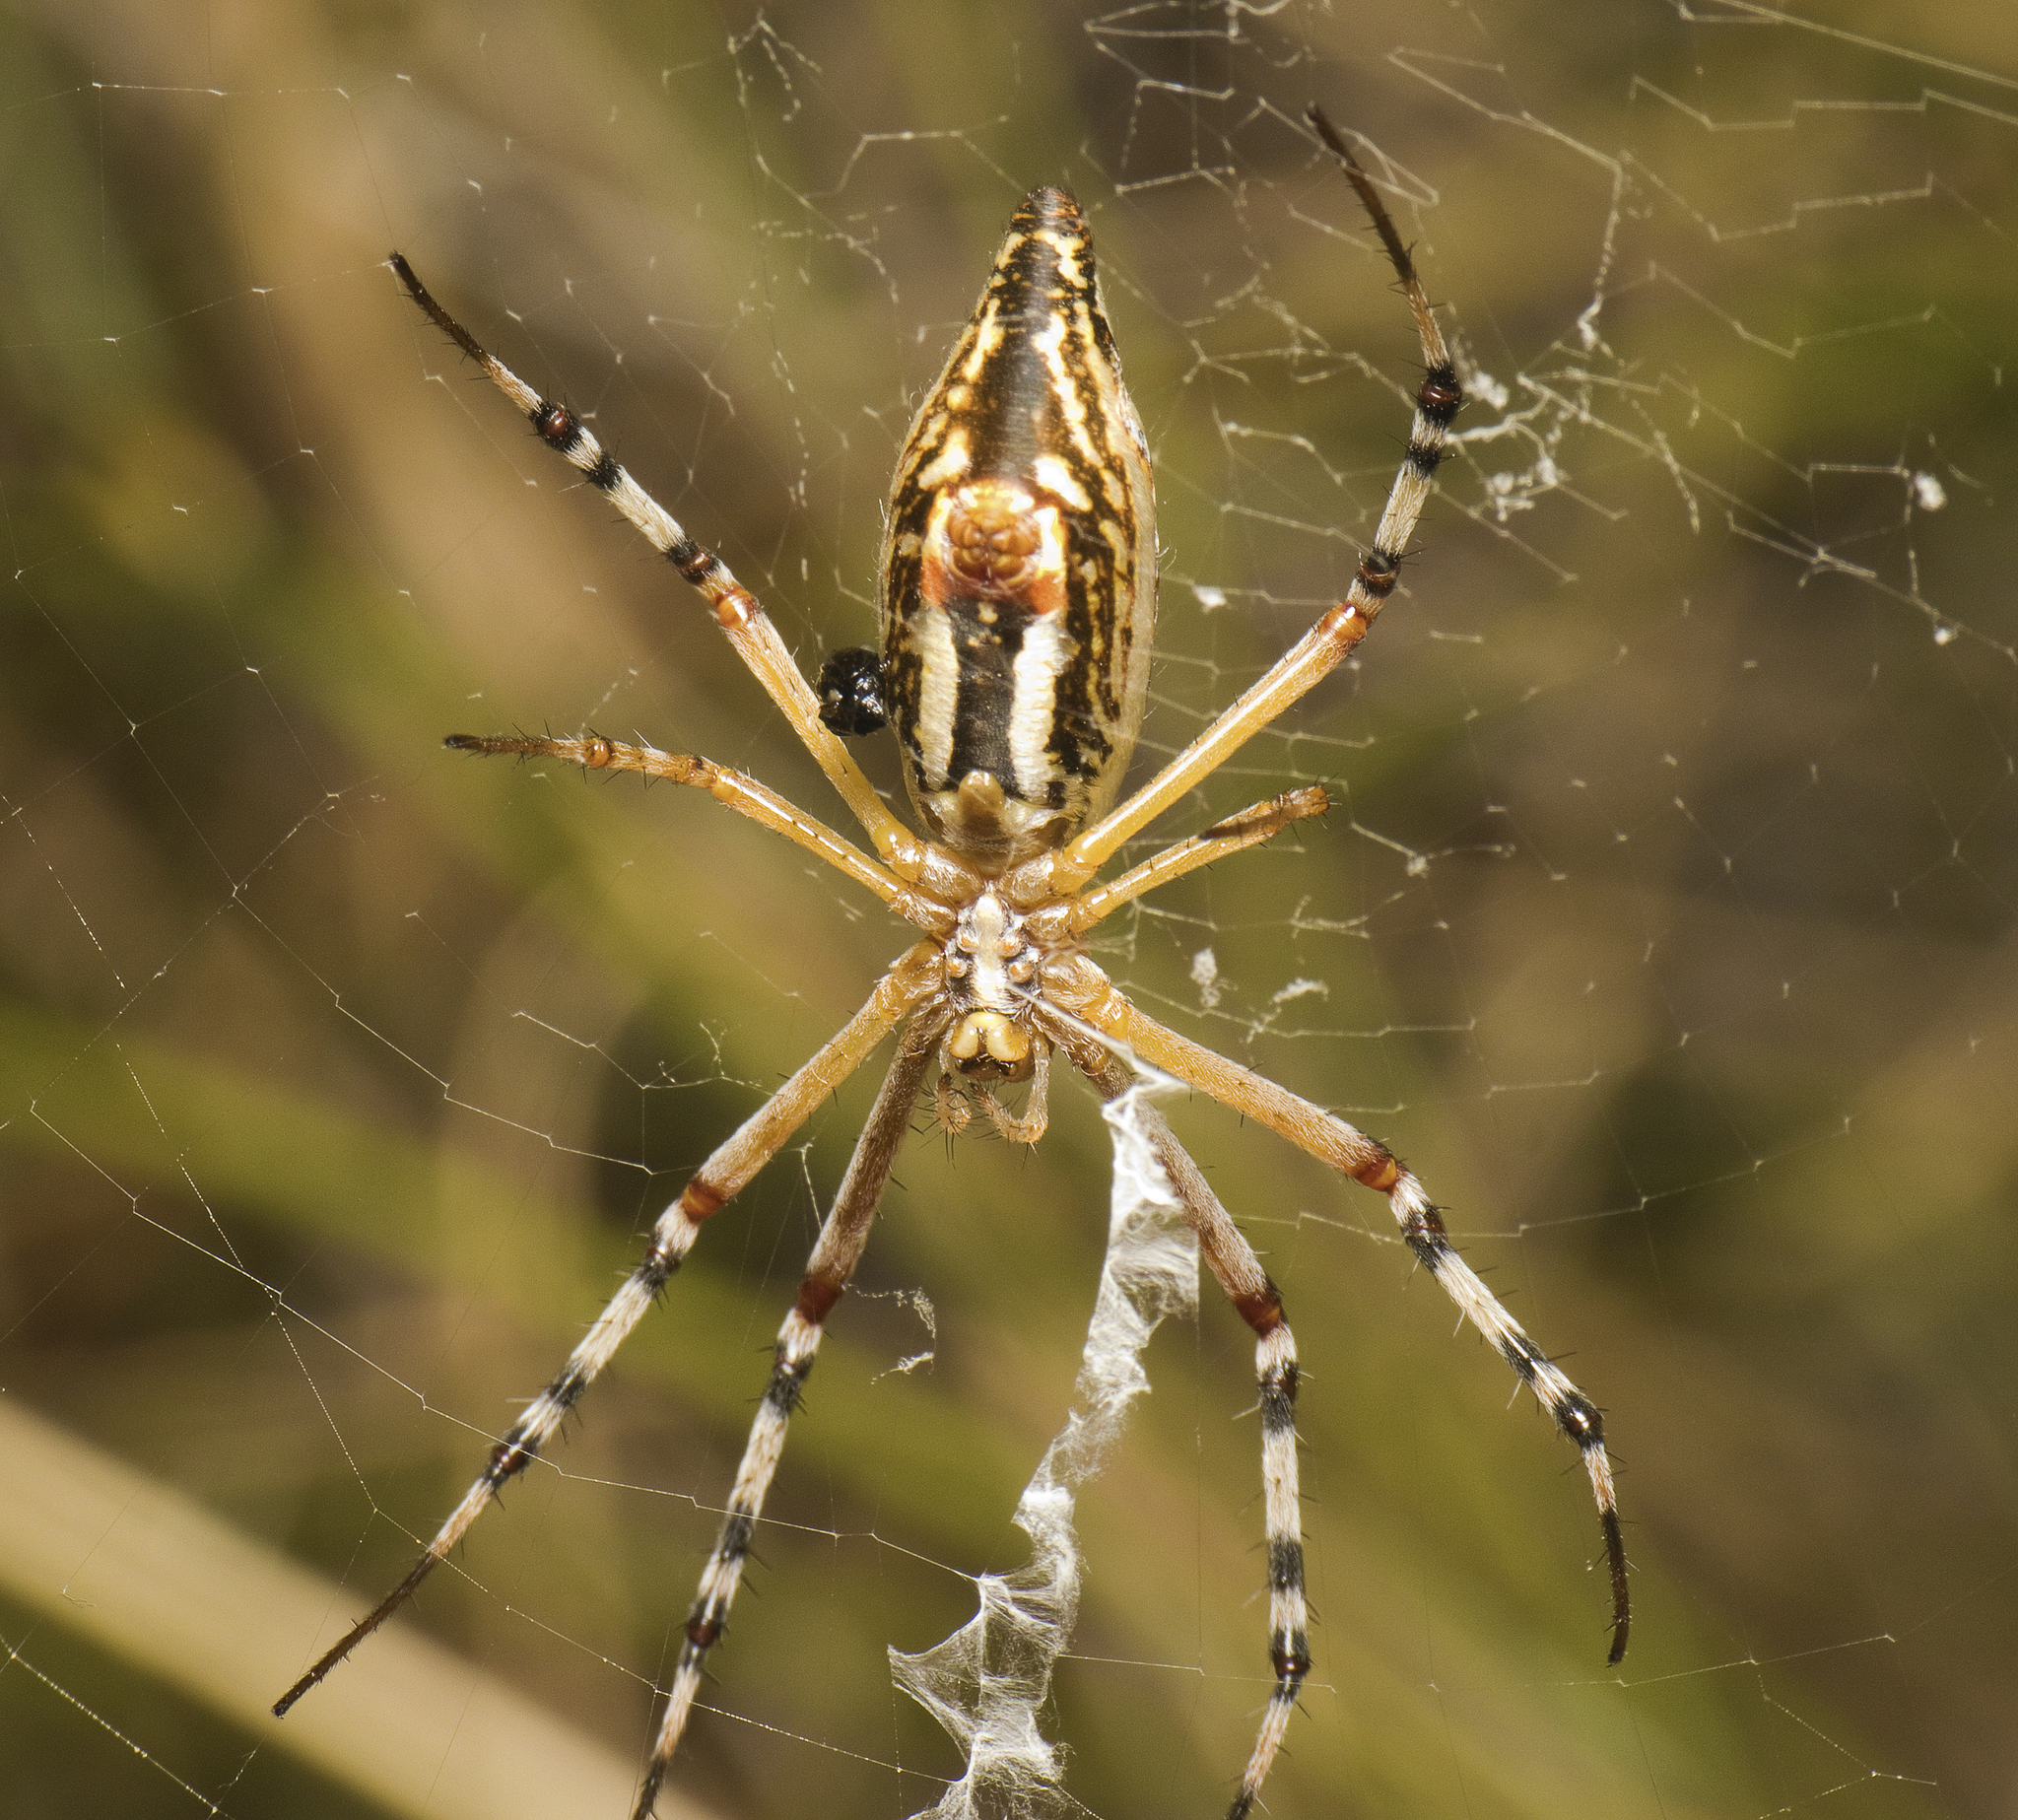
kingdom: Animalia
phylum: Arthropoda
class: Arachnida
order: Araneae
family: Araneidae
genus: Argiope
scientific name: Argiope protensa
